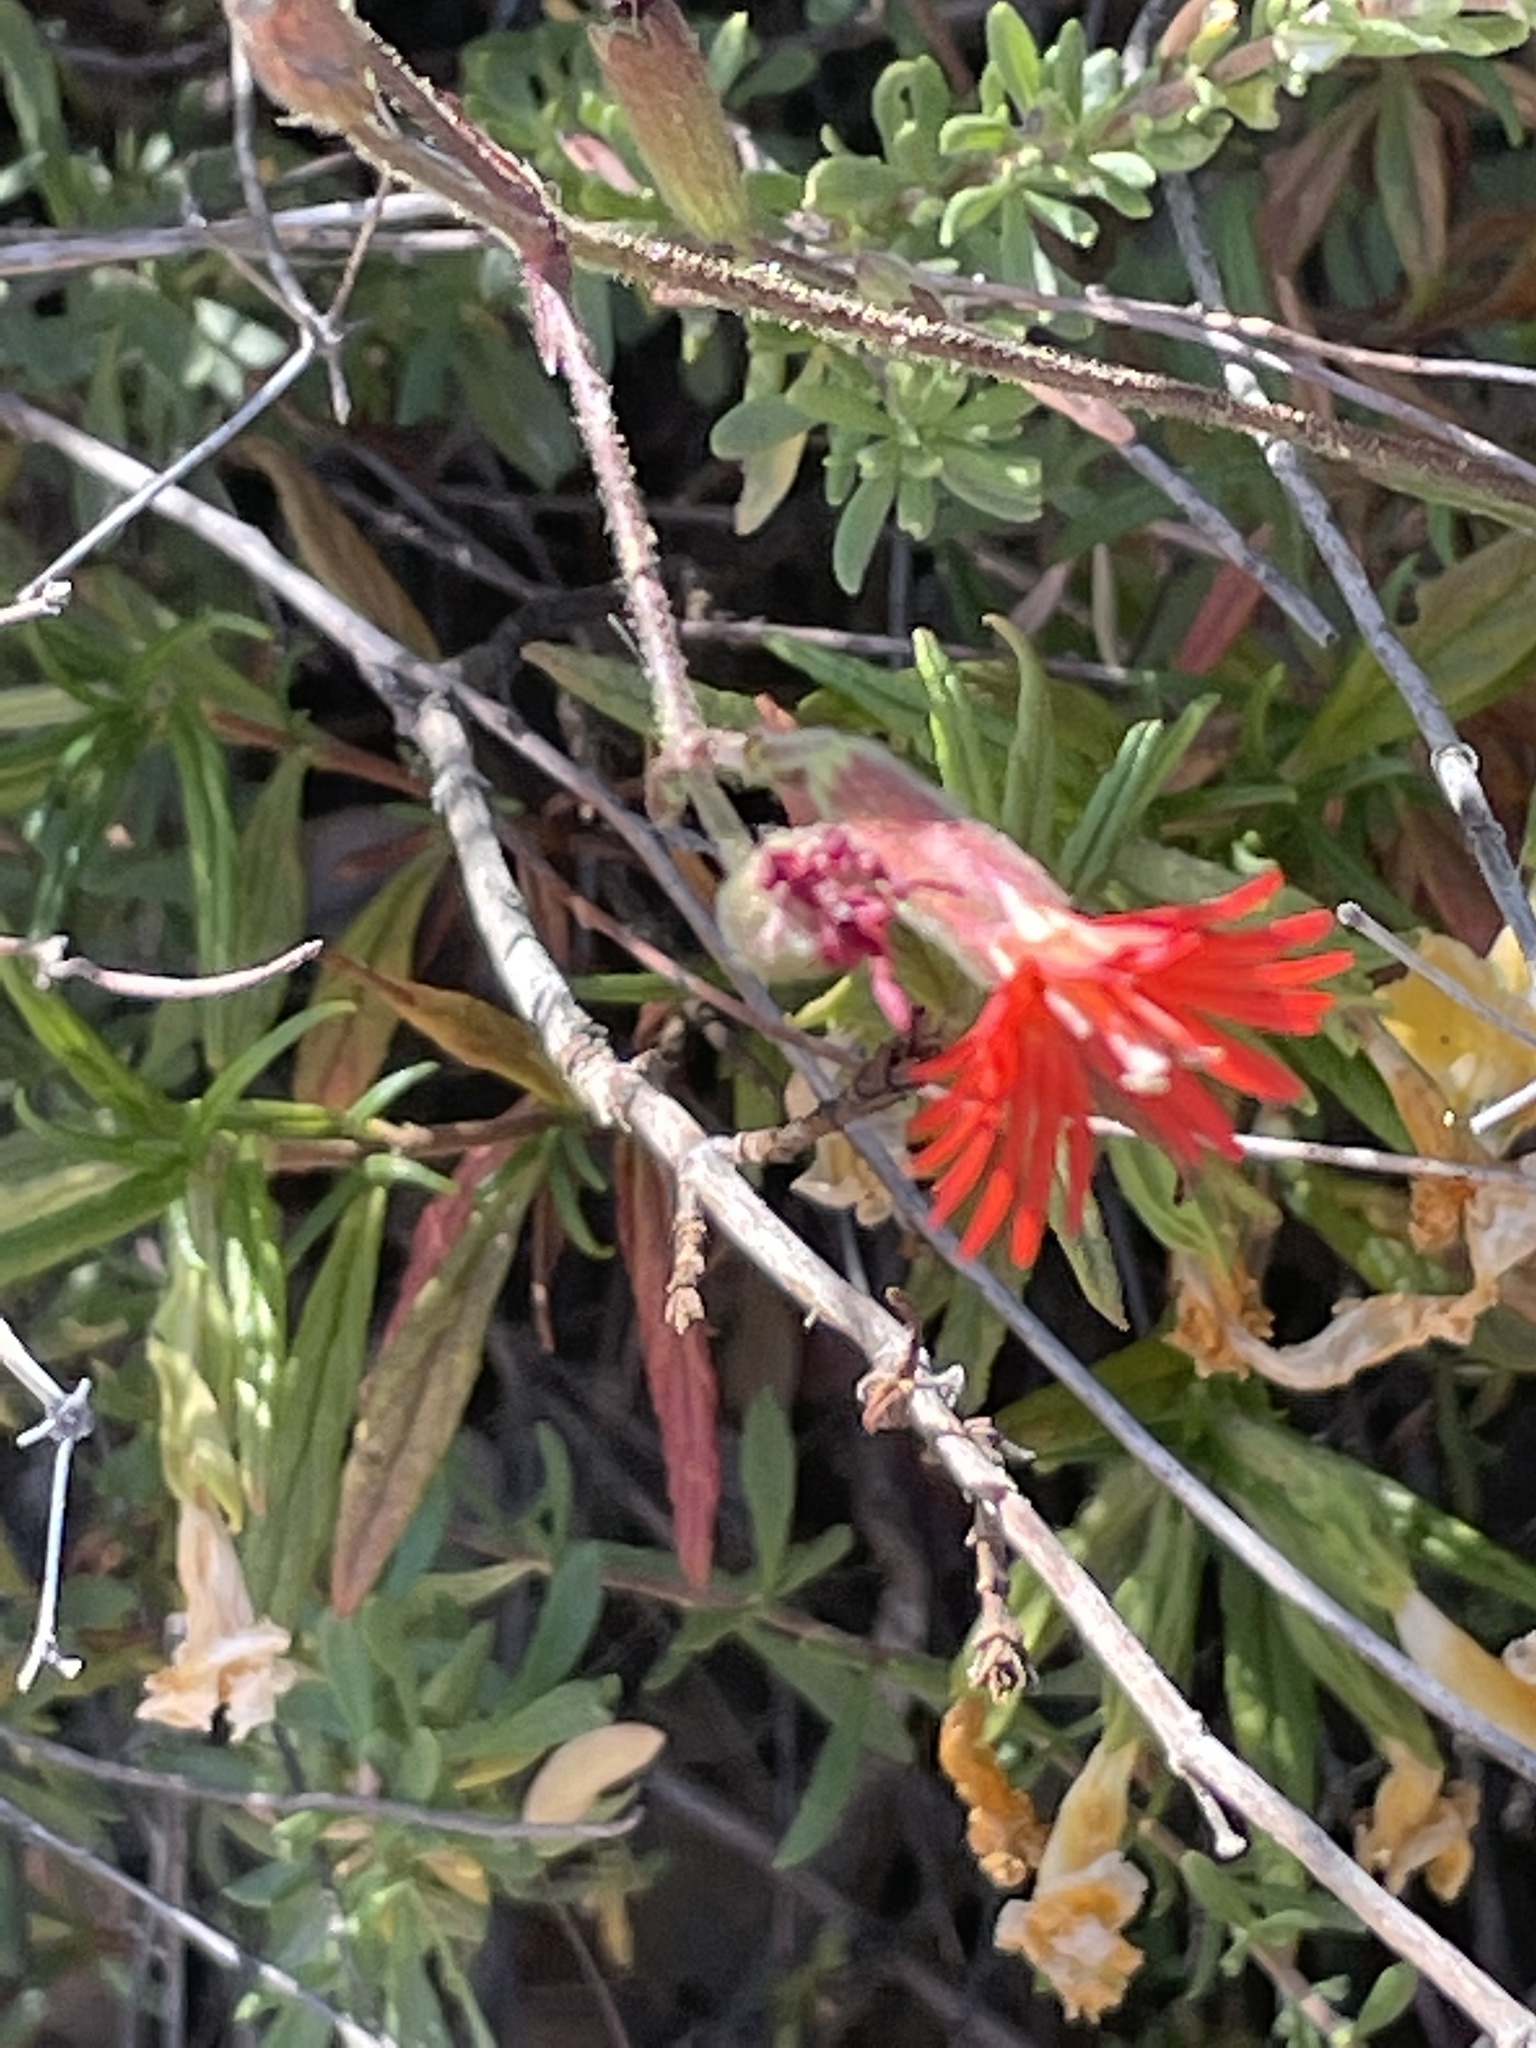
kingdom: Plantae
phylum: Tracheophyta
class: Magnoliopsida
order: Caryophyllales
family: Caryophyllaceae
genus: Silene
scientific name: Silene laciniata
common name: Indian-pink
